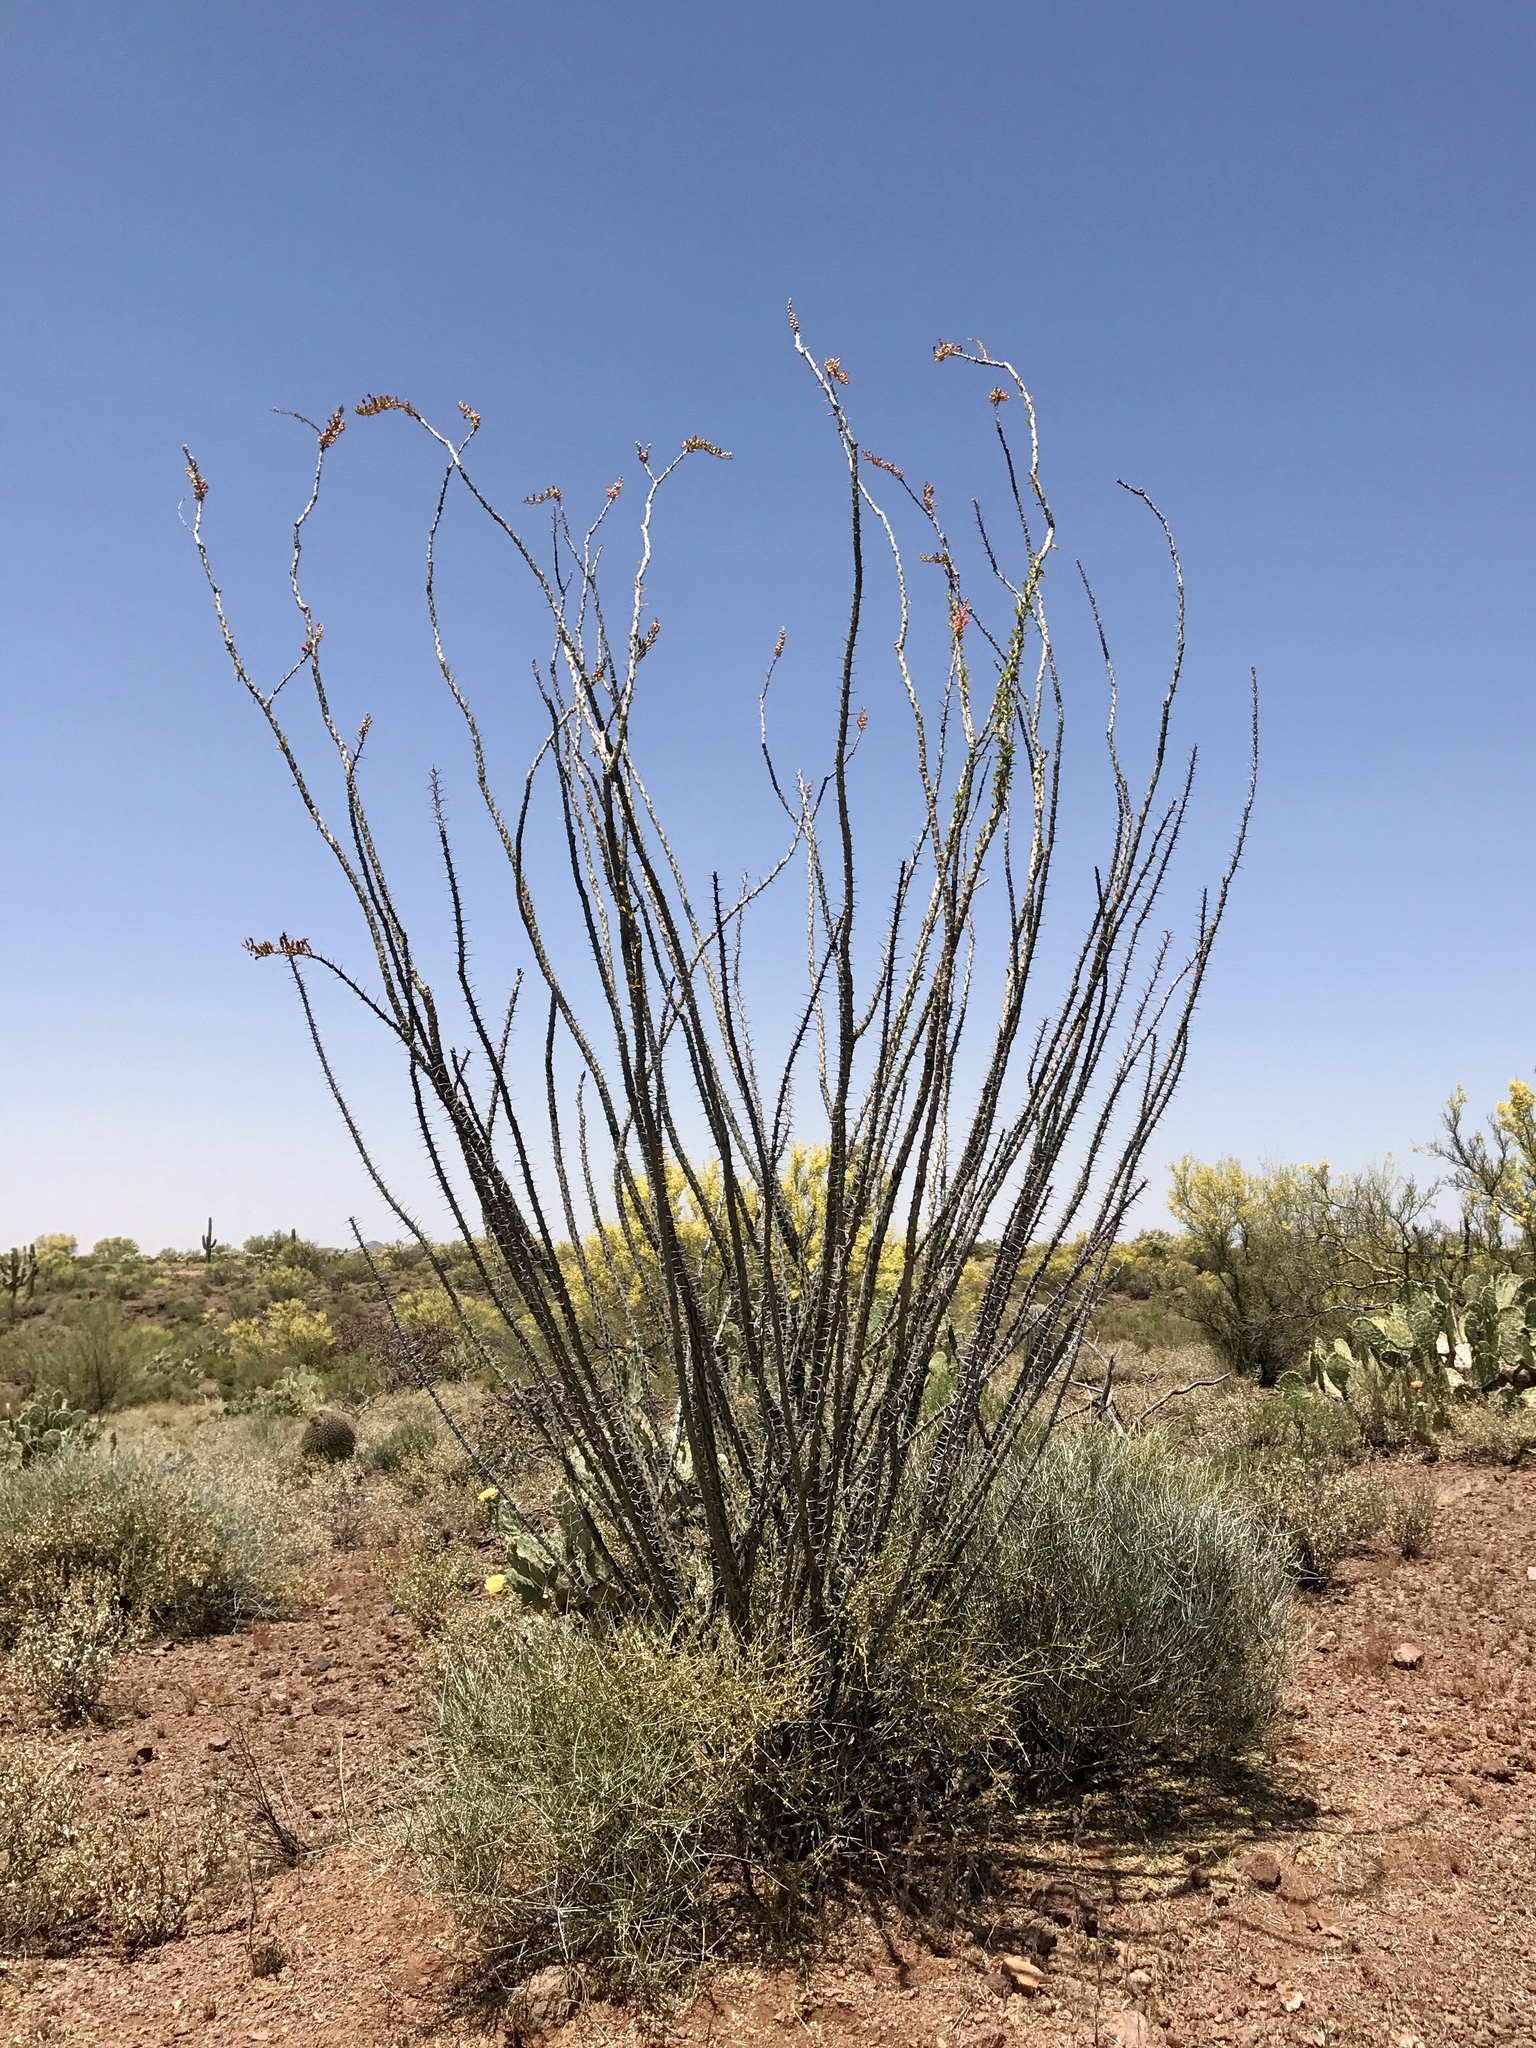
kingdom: Plantae
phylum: Tracheophyta
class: Magnoliopsida
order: Ericales
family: Fouquieriaceae
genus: Fouquieria
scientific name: Fouquieria splendens
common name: Vine-cactus
